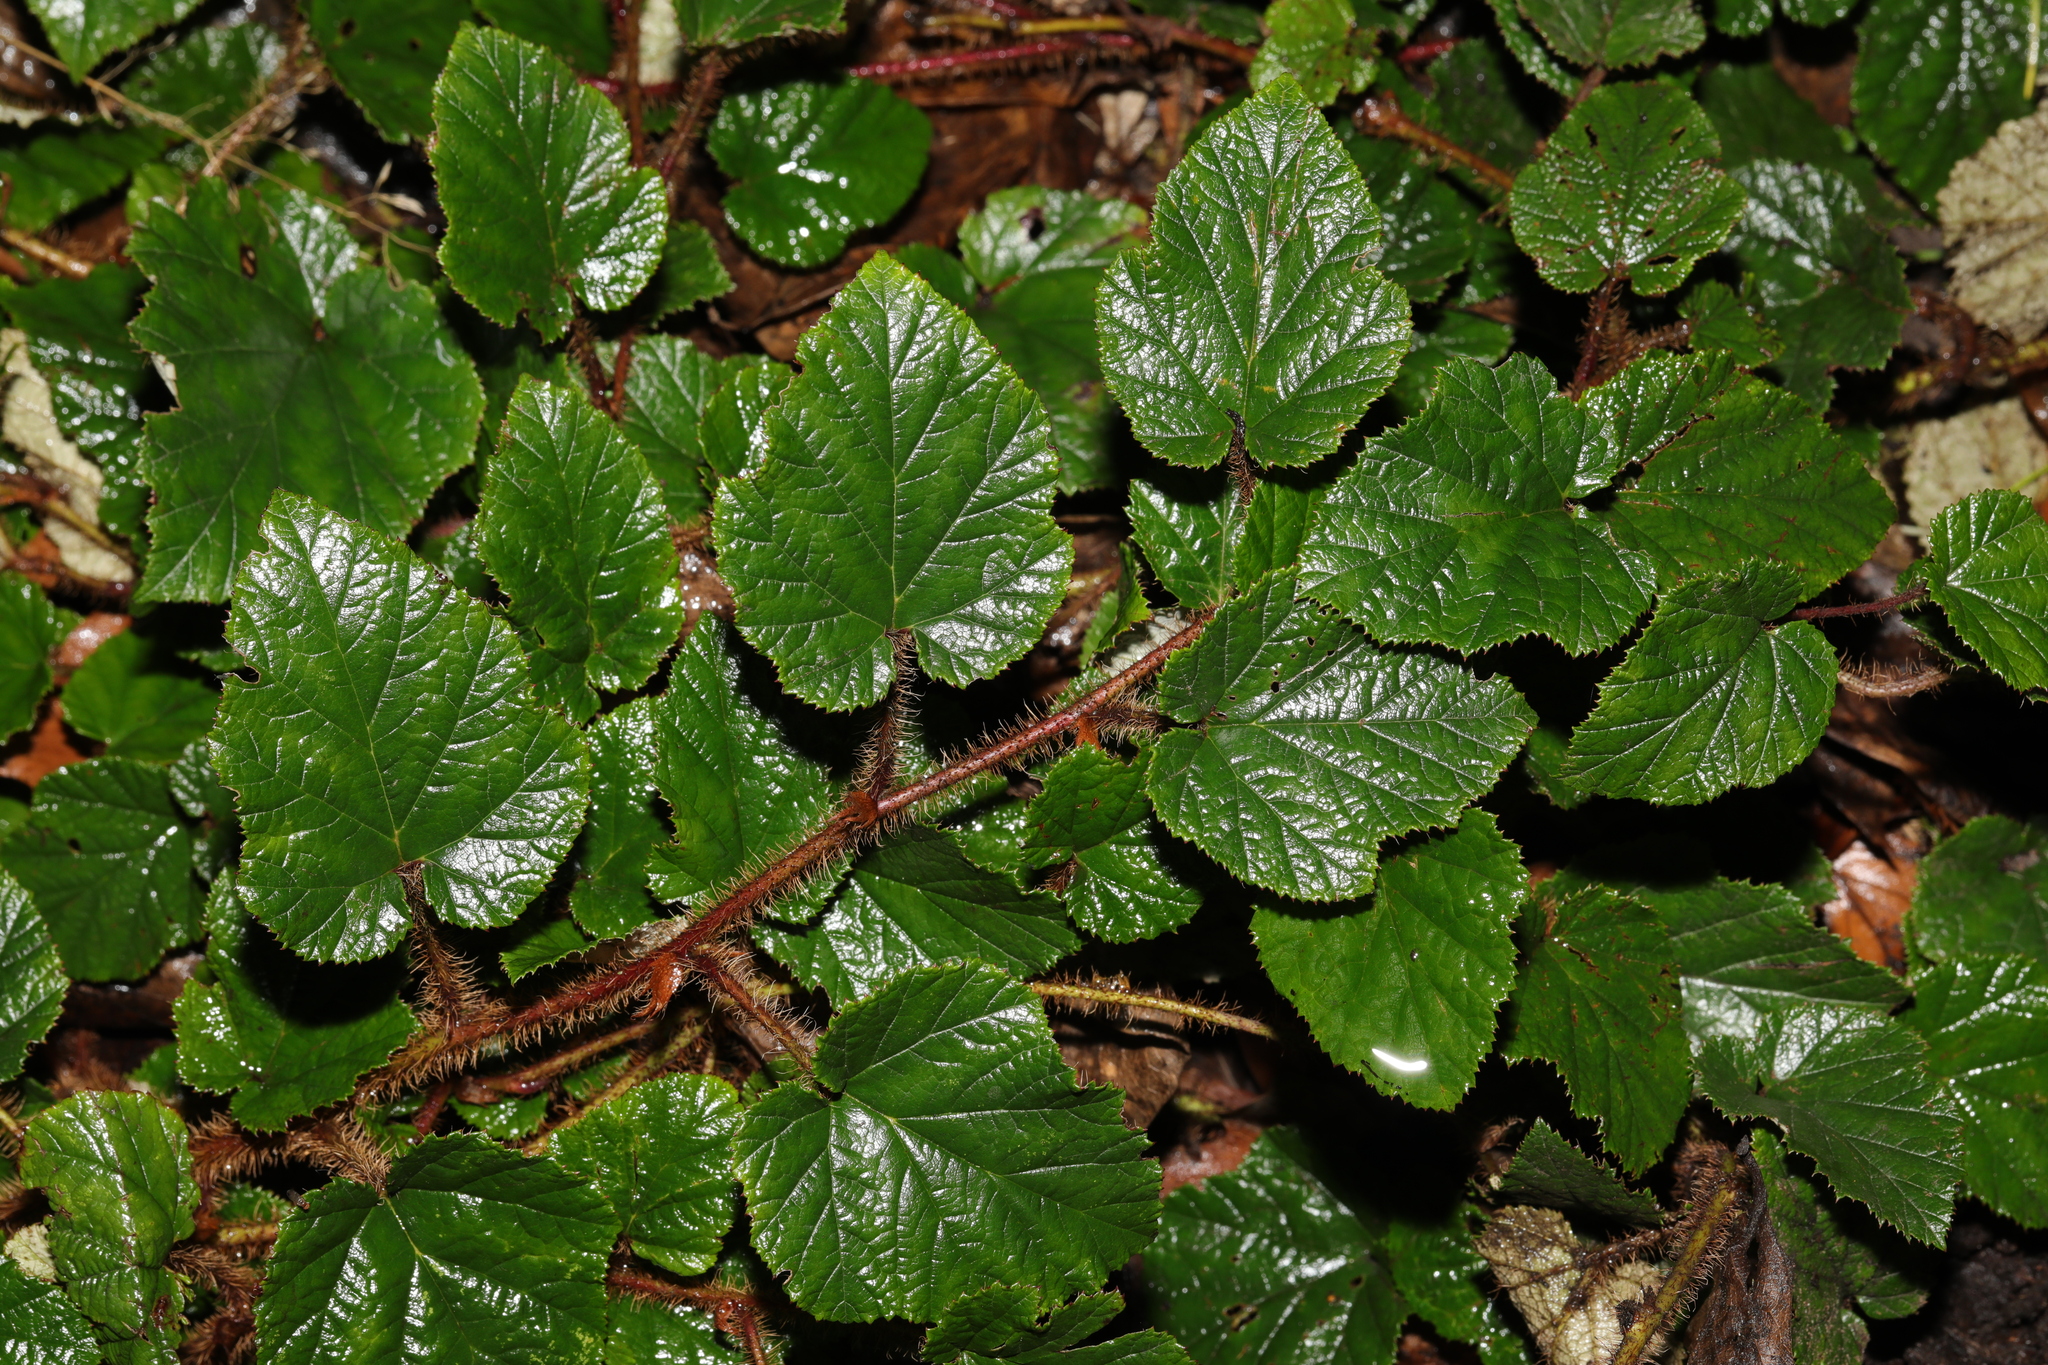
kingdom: Plantae
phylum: Tracheophyta
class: Magnoliopsida
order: Rosales
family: Rosaceae
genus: Rubus
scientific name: Rubus tricolor
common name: Chinese bramble
